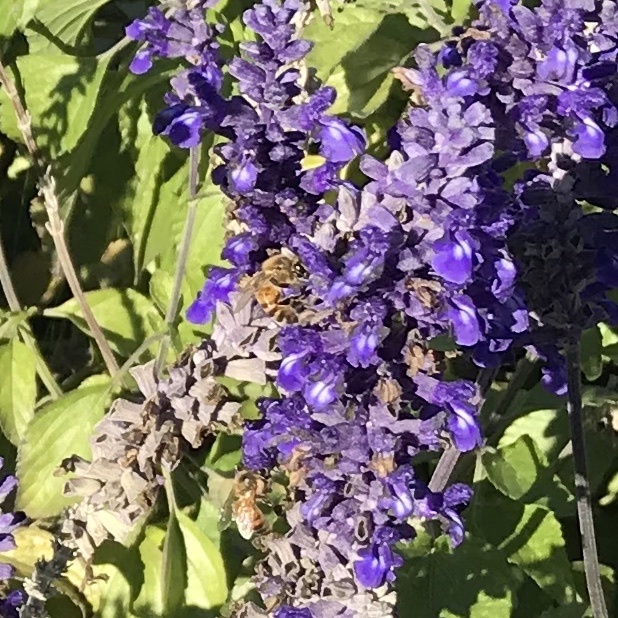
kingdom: Animalia
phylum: Arthropoda
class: Insecta
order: Hymenoptera
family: Apidae
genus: Apis
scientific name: Apis mellifera
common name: Honey bee
